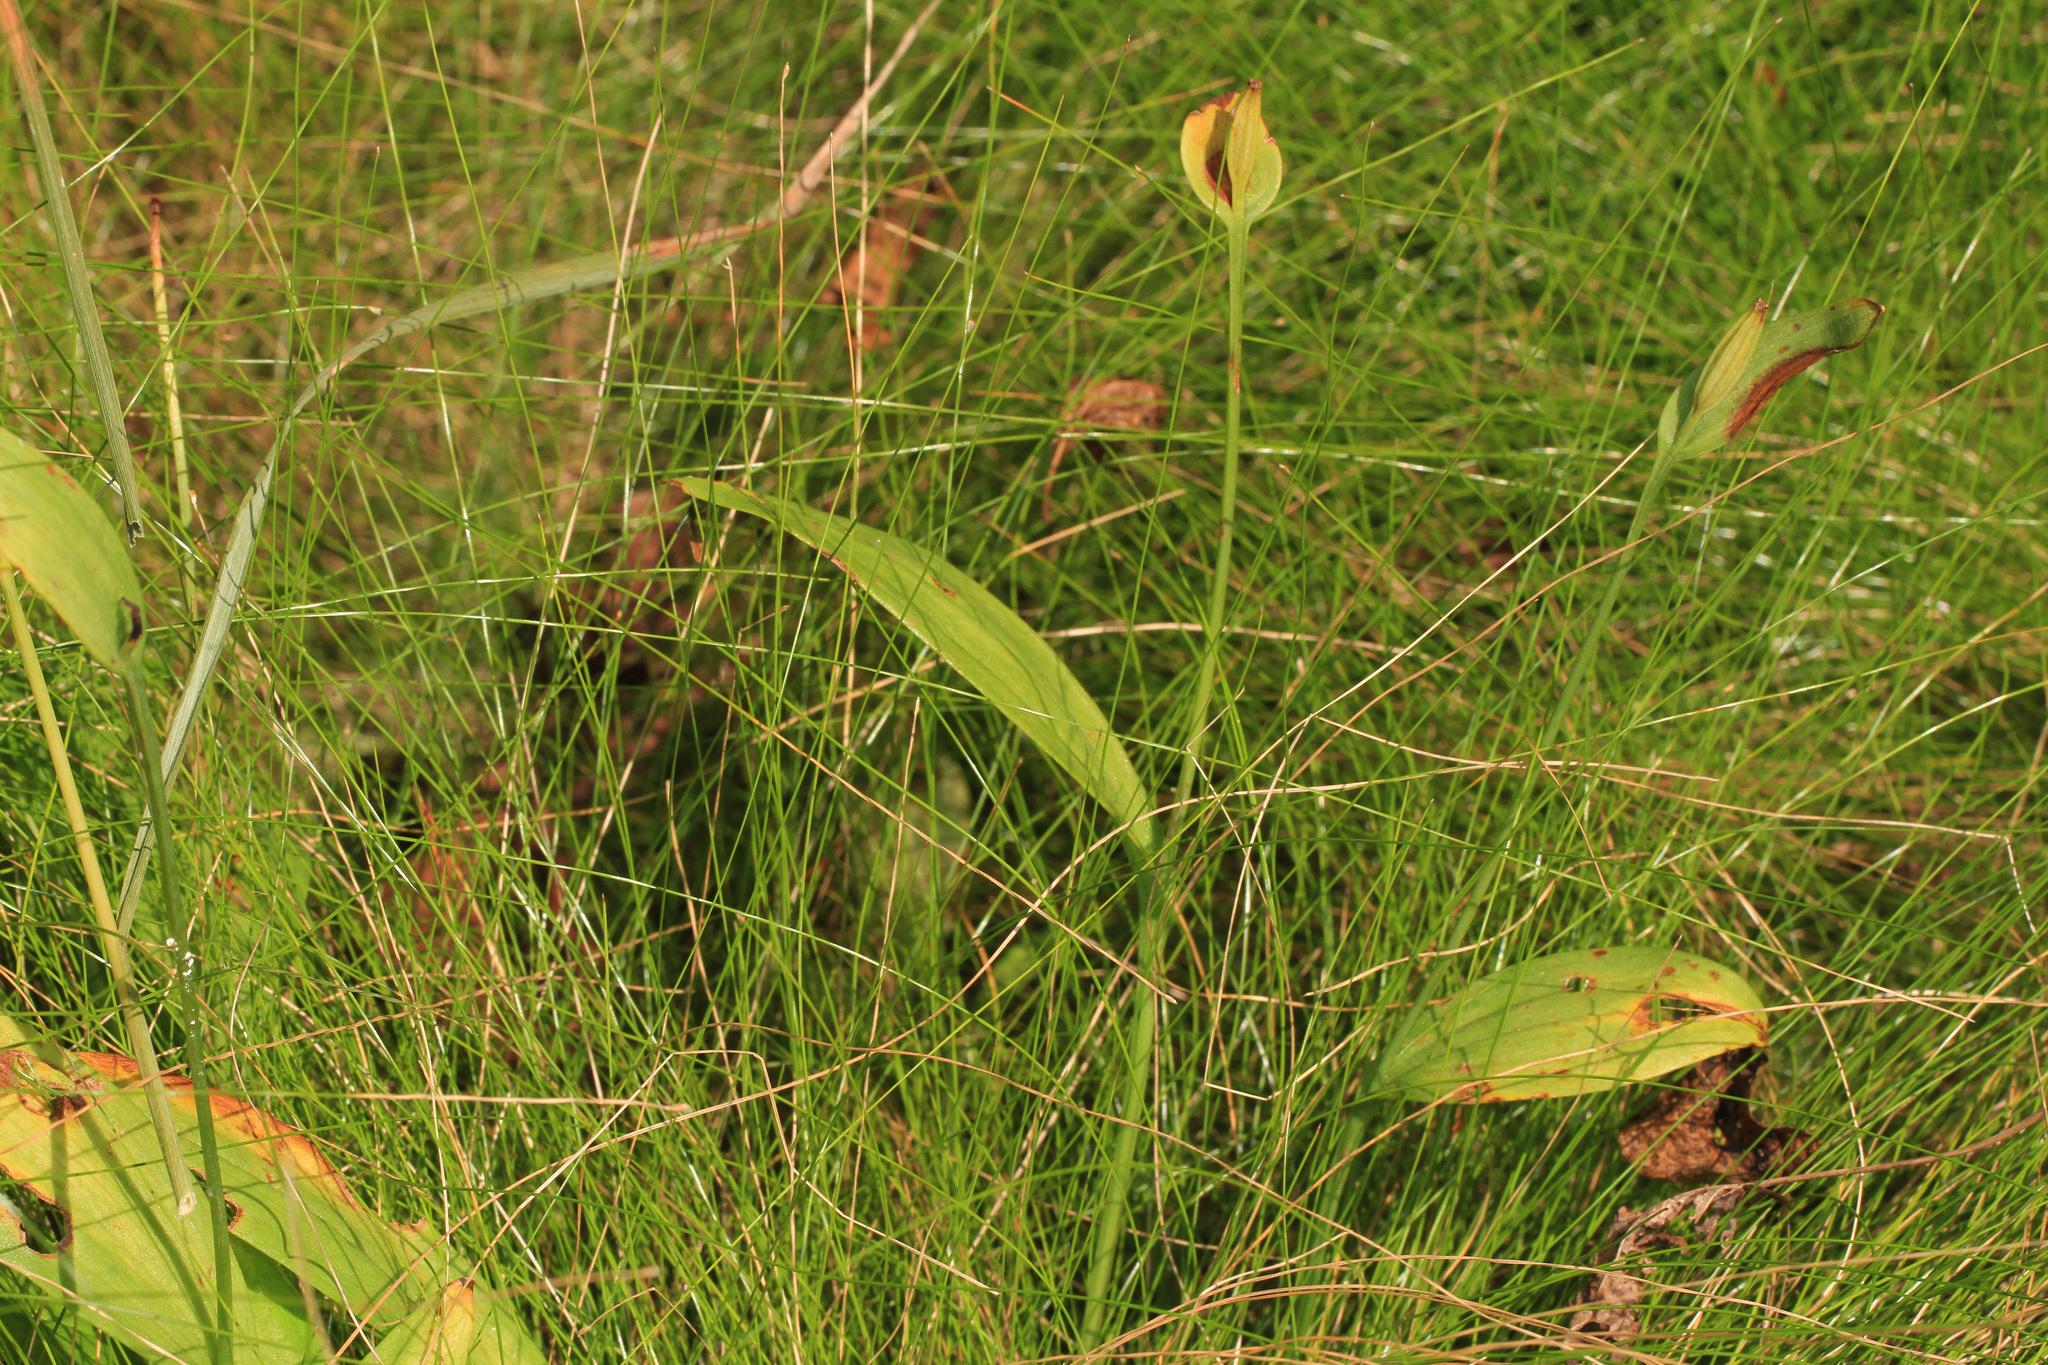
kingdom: Plantae
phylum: Tracheophyta
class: Liliopsida
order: Asparagales
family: Orchidaceae
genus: Pogonia
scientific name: Pogonia ophioglossoides
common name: Rose pogonia
